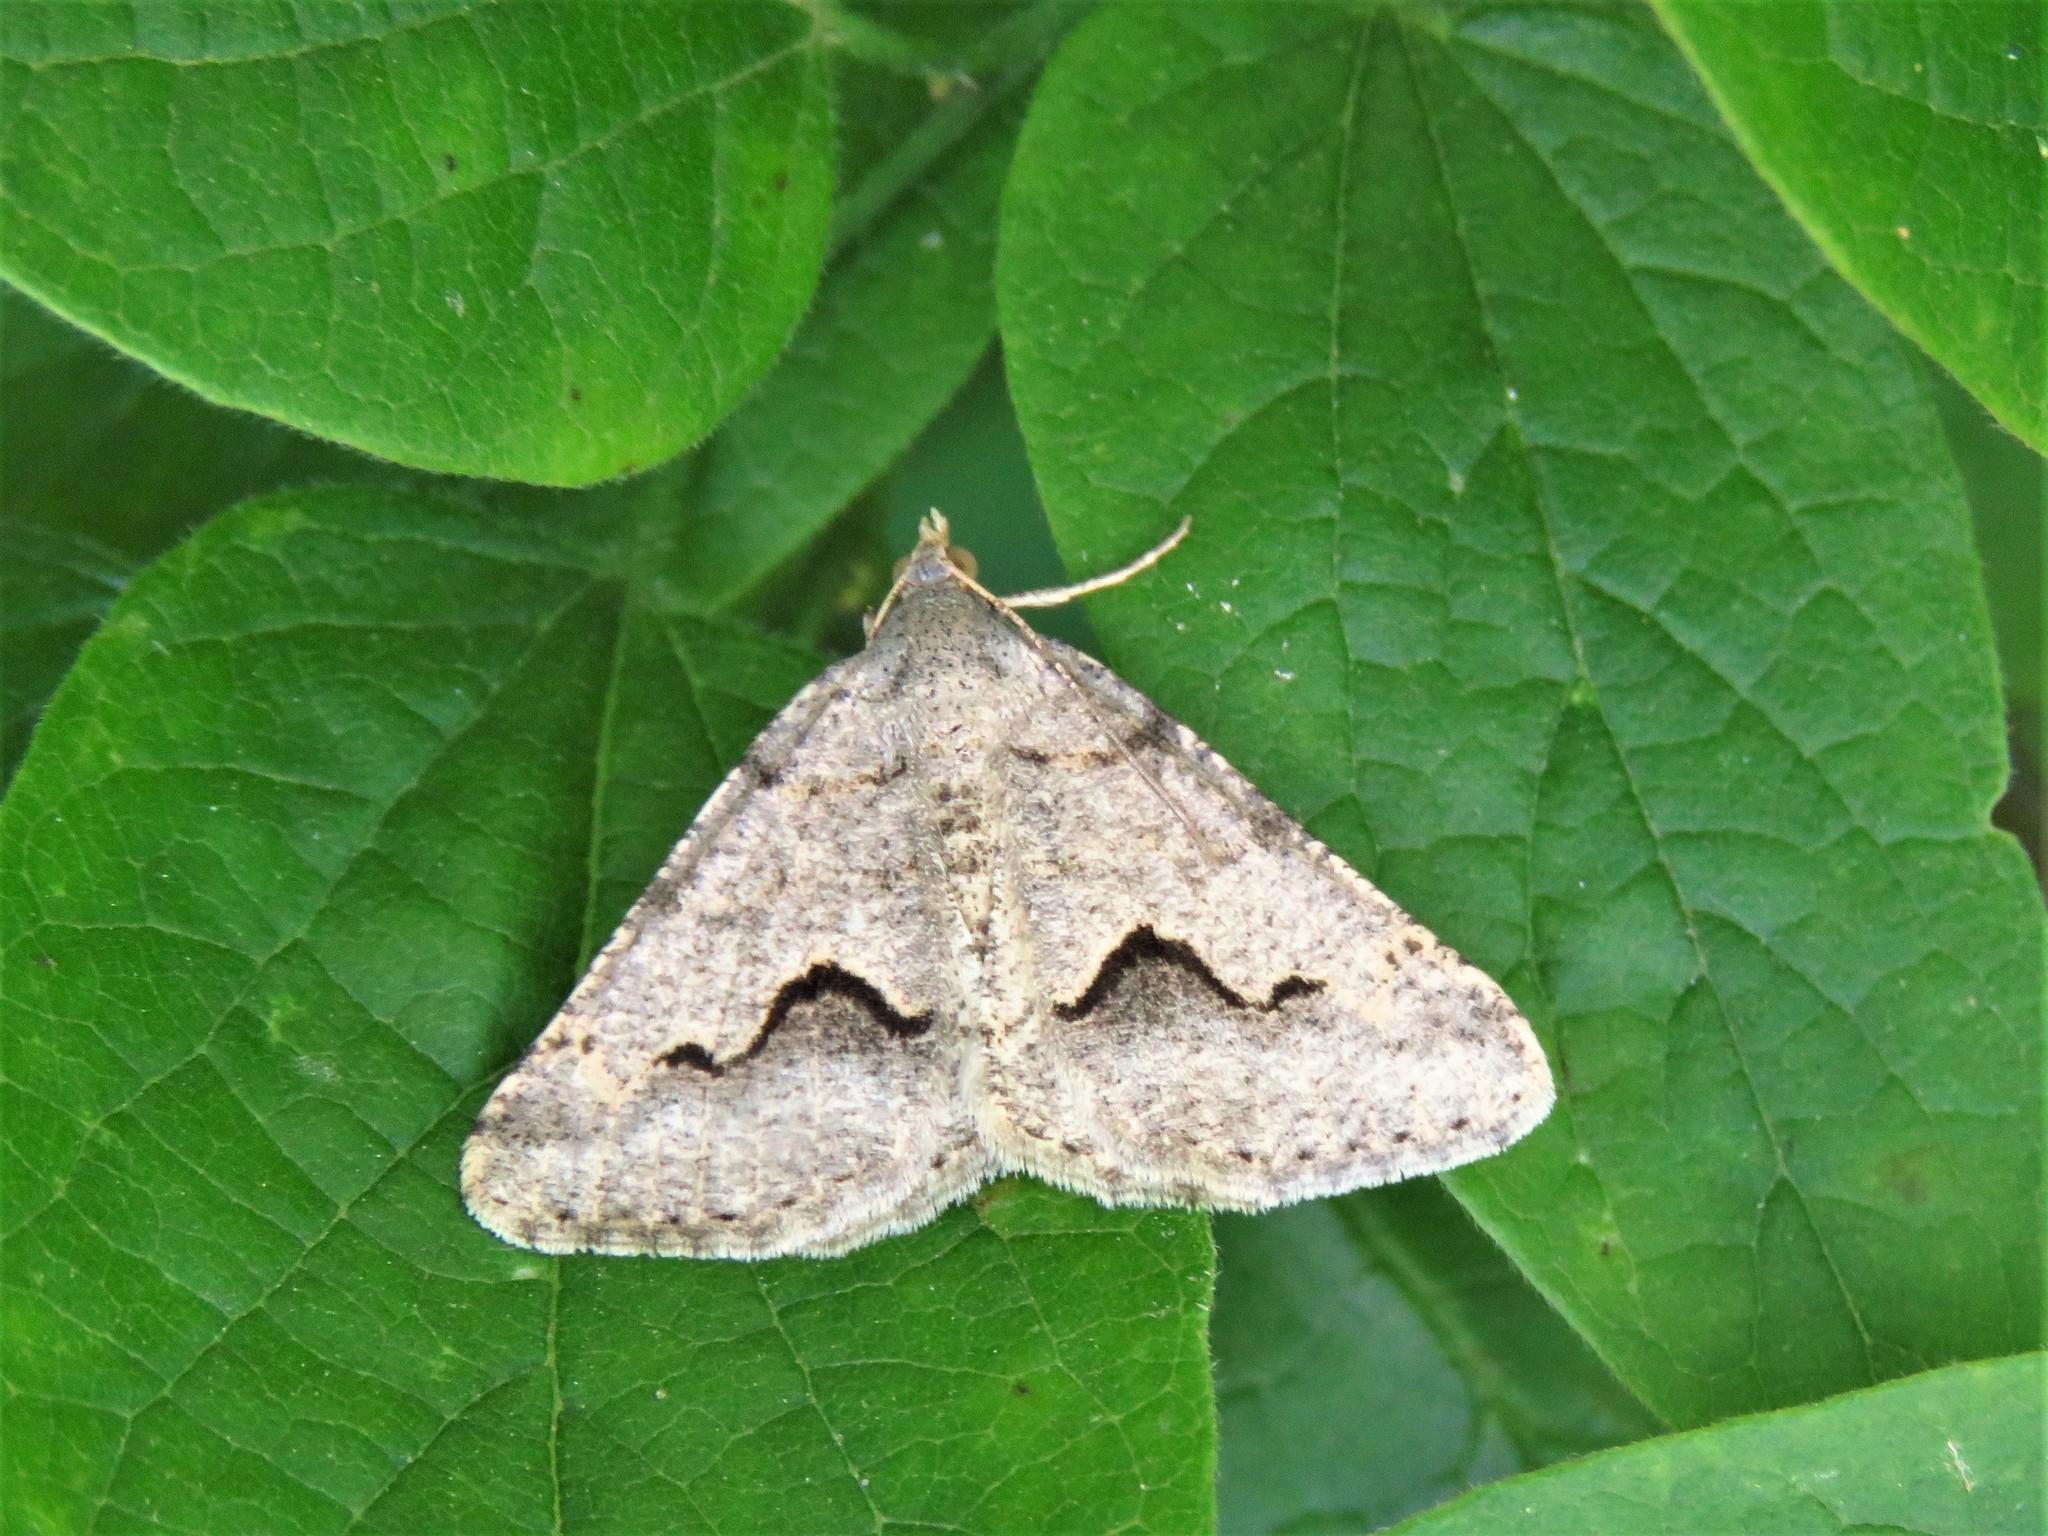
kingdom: Animalia
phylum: Arthropoda
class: Insecta
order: Lepidoptera
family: Geometridae
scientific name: Geometridae
